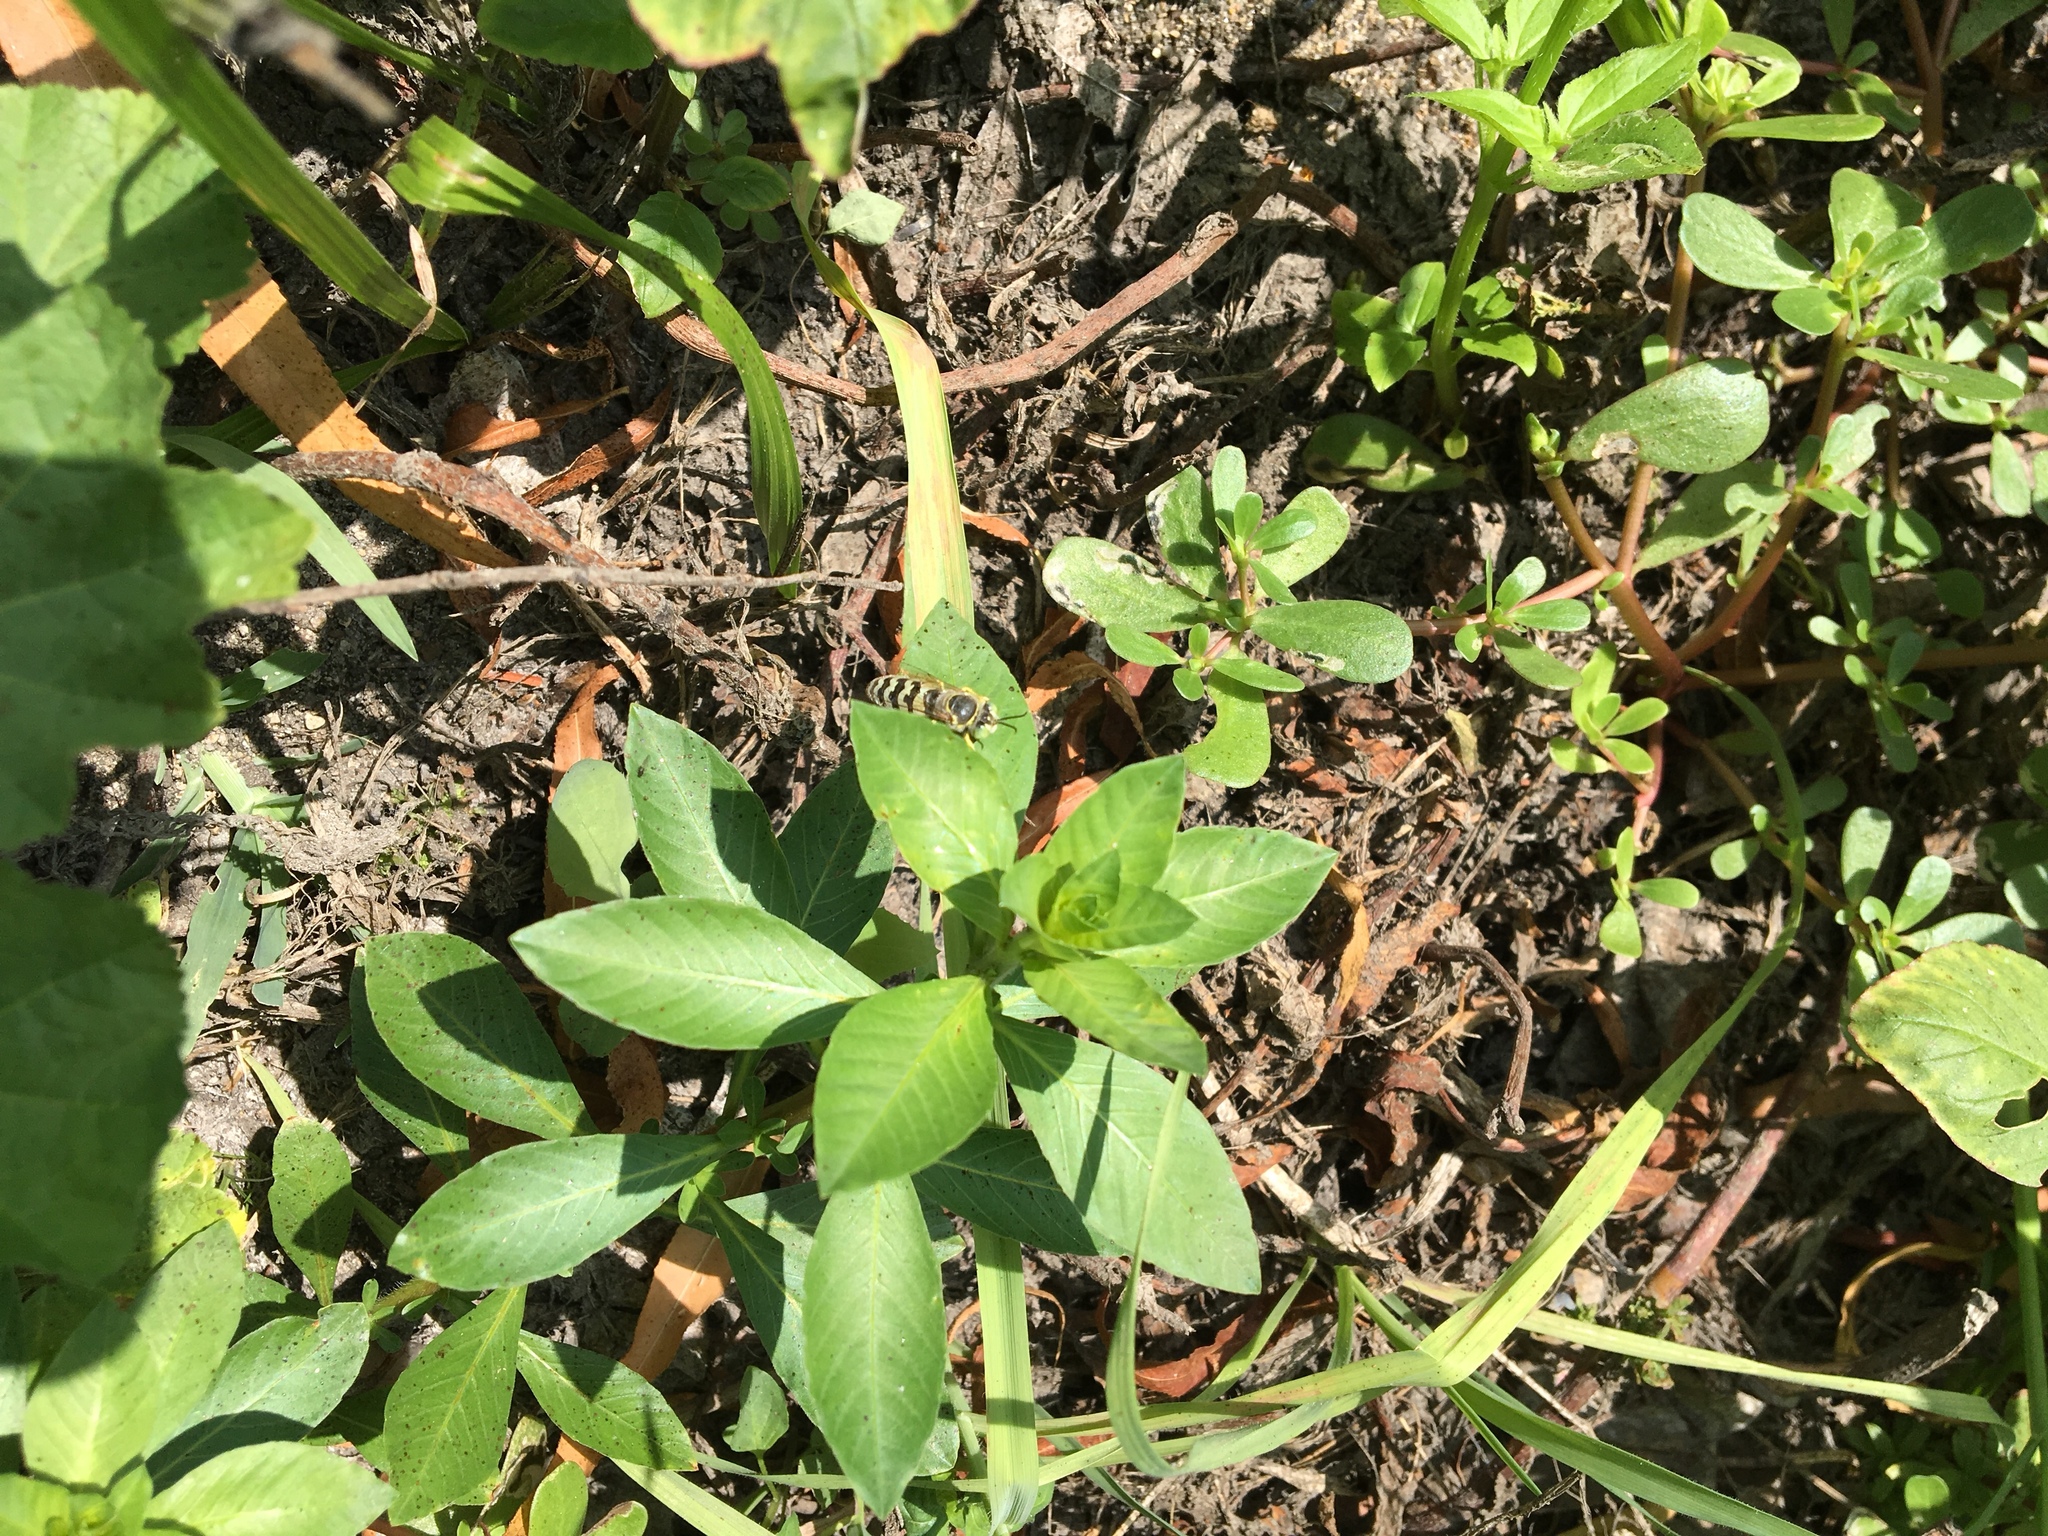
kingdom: Animalia
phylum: Arthropoda
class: Insecta
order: Hymenoptera
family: Crabronidae
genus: Bembix
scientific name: Bembix
